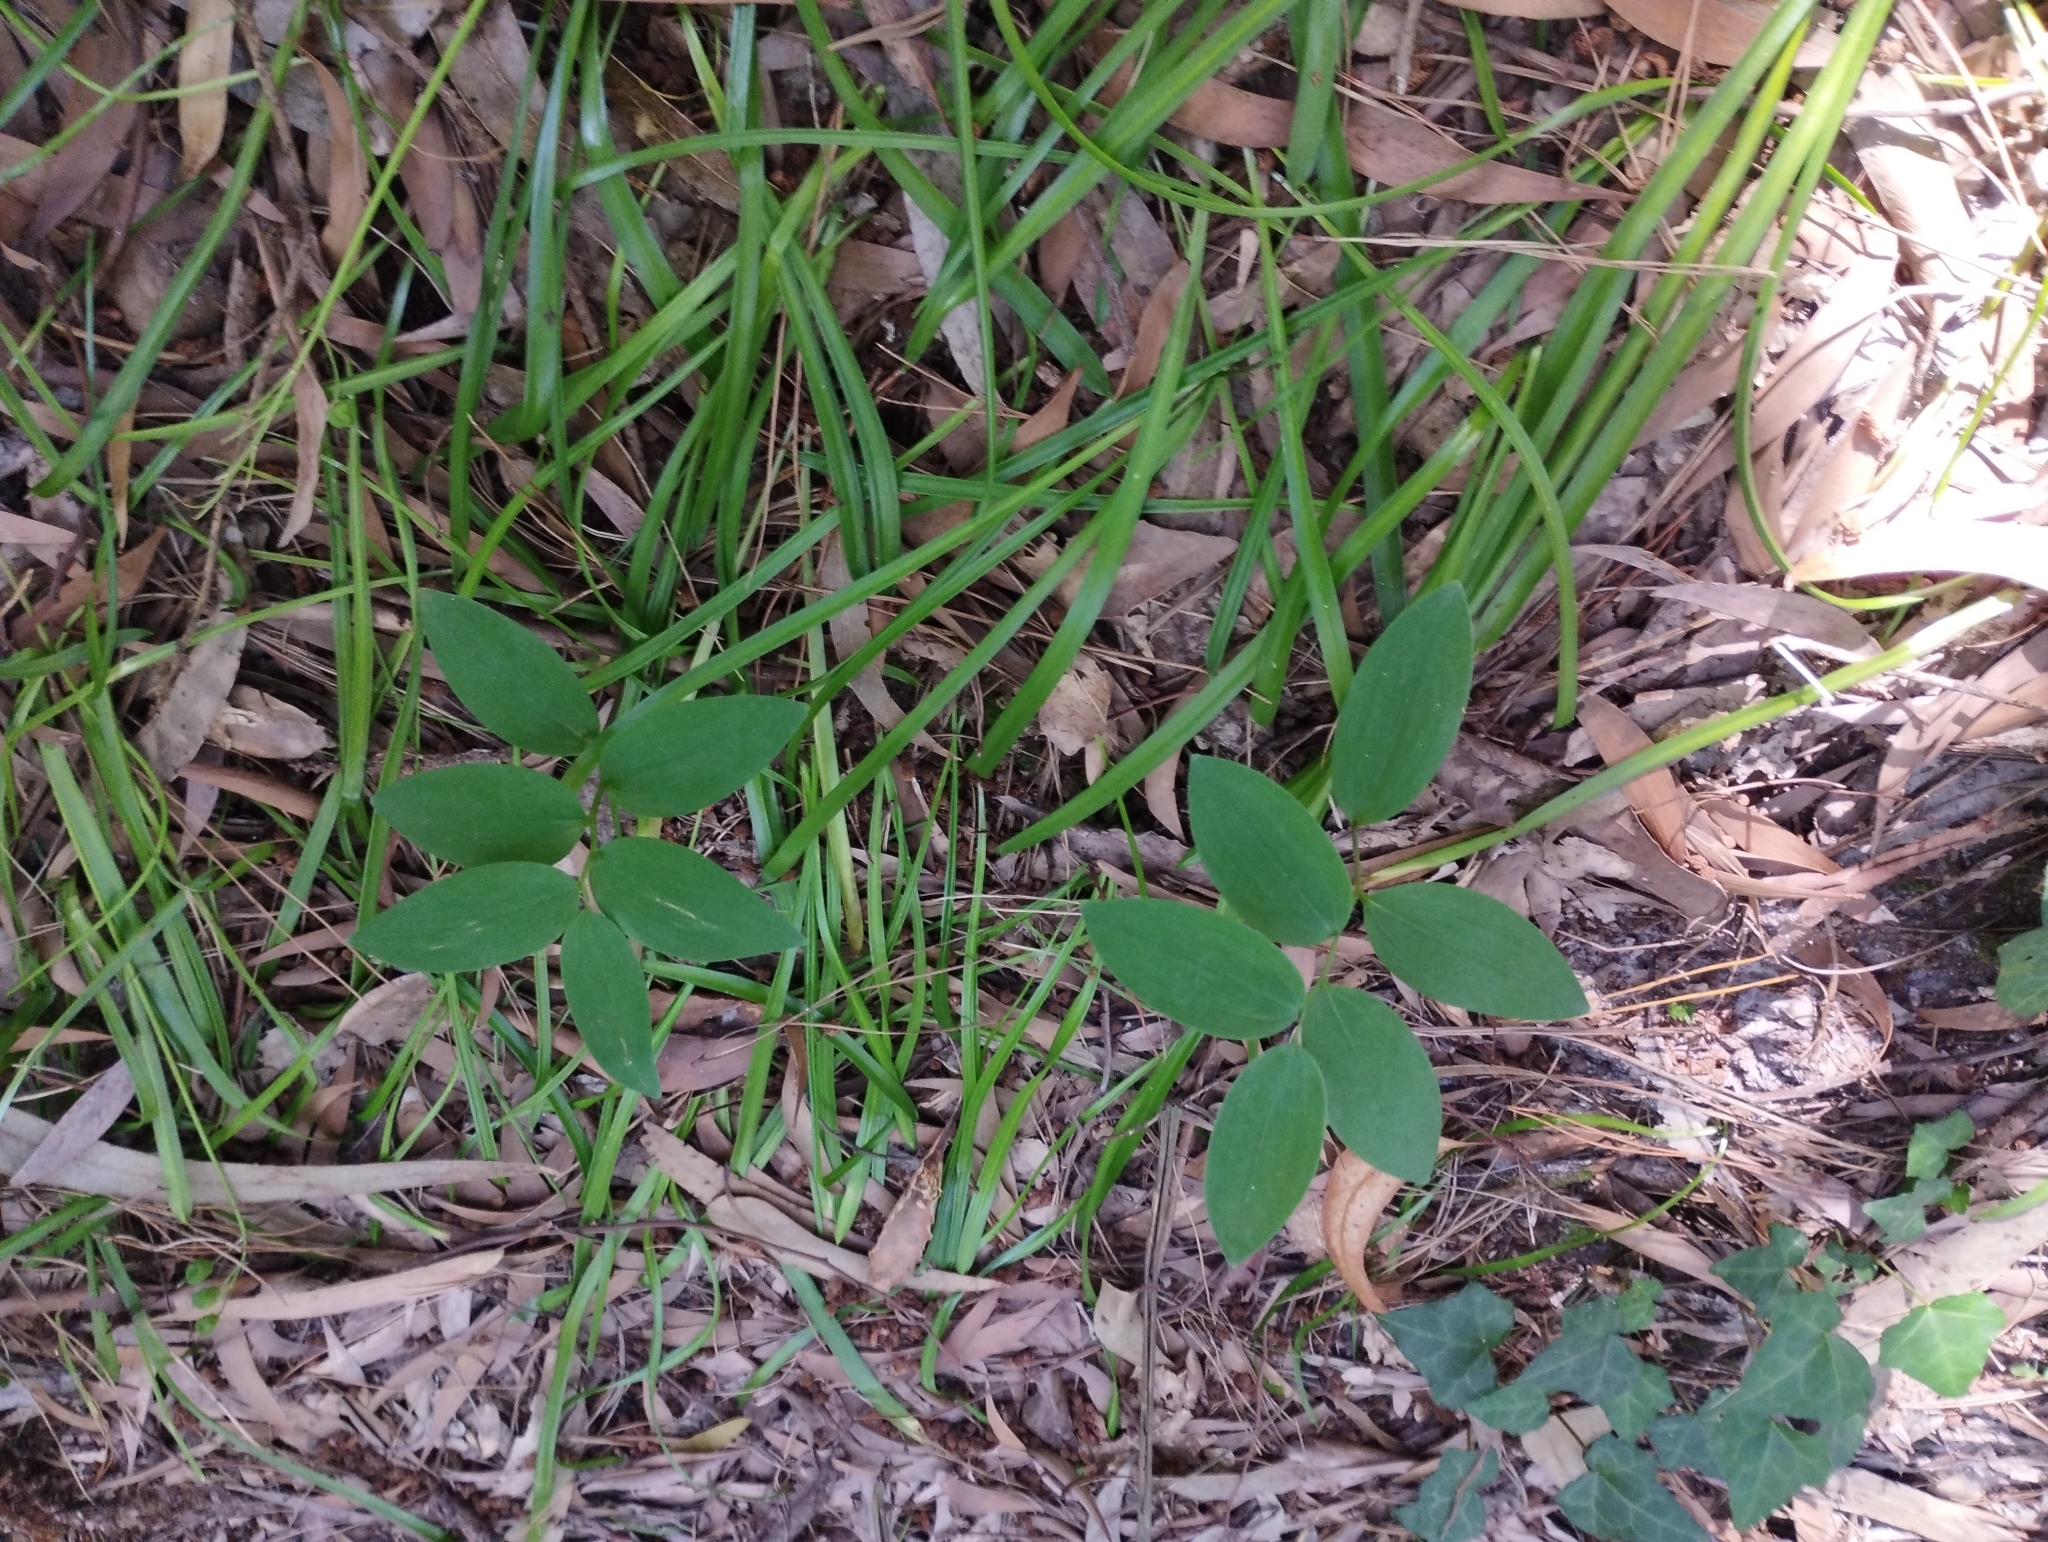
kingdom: Plantae
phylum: Tracheophyta
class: Liliopsida
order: Asparagales
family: Asparagaceae
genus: Polygonatum
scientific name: Polygonatum odoratum
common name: Angular solomon's-seal
